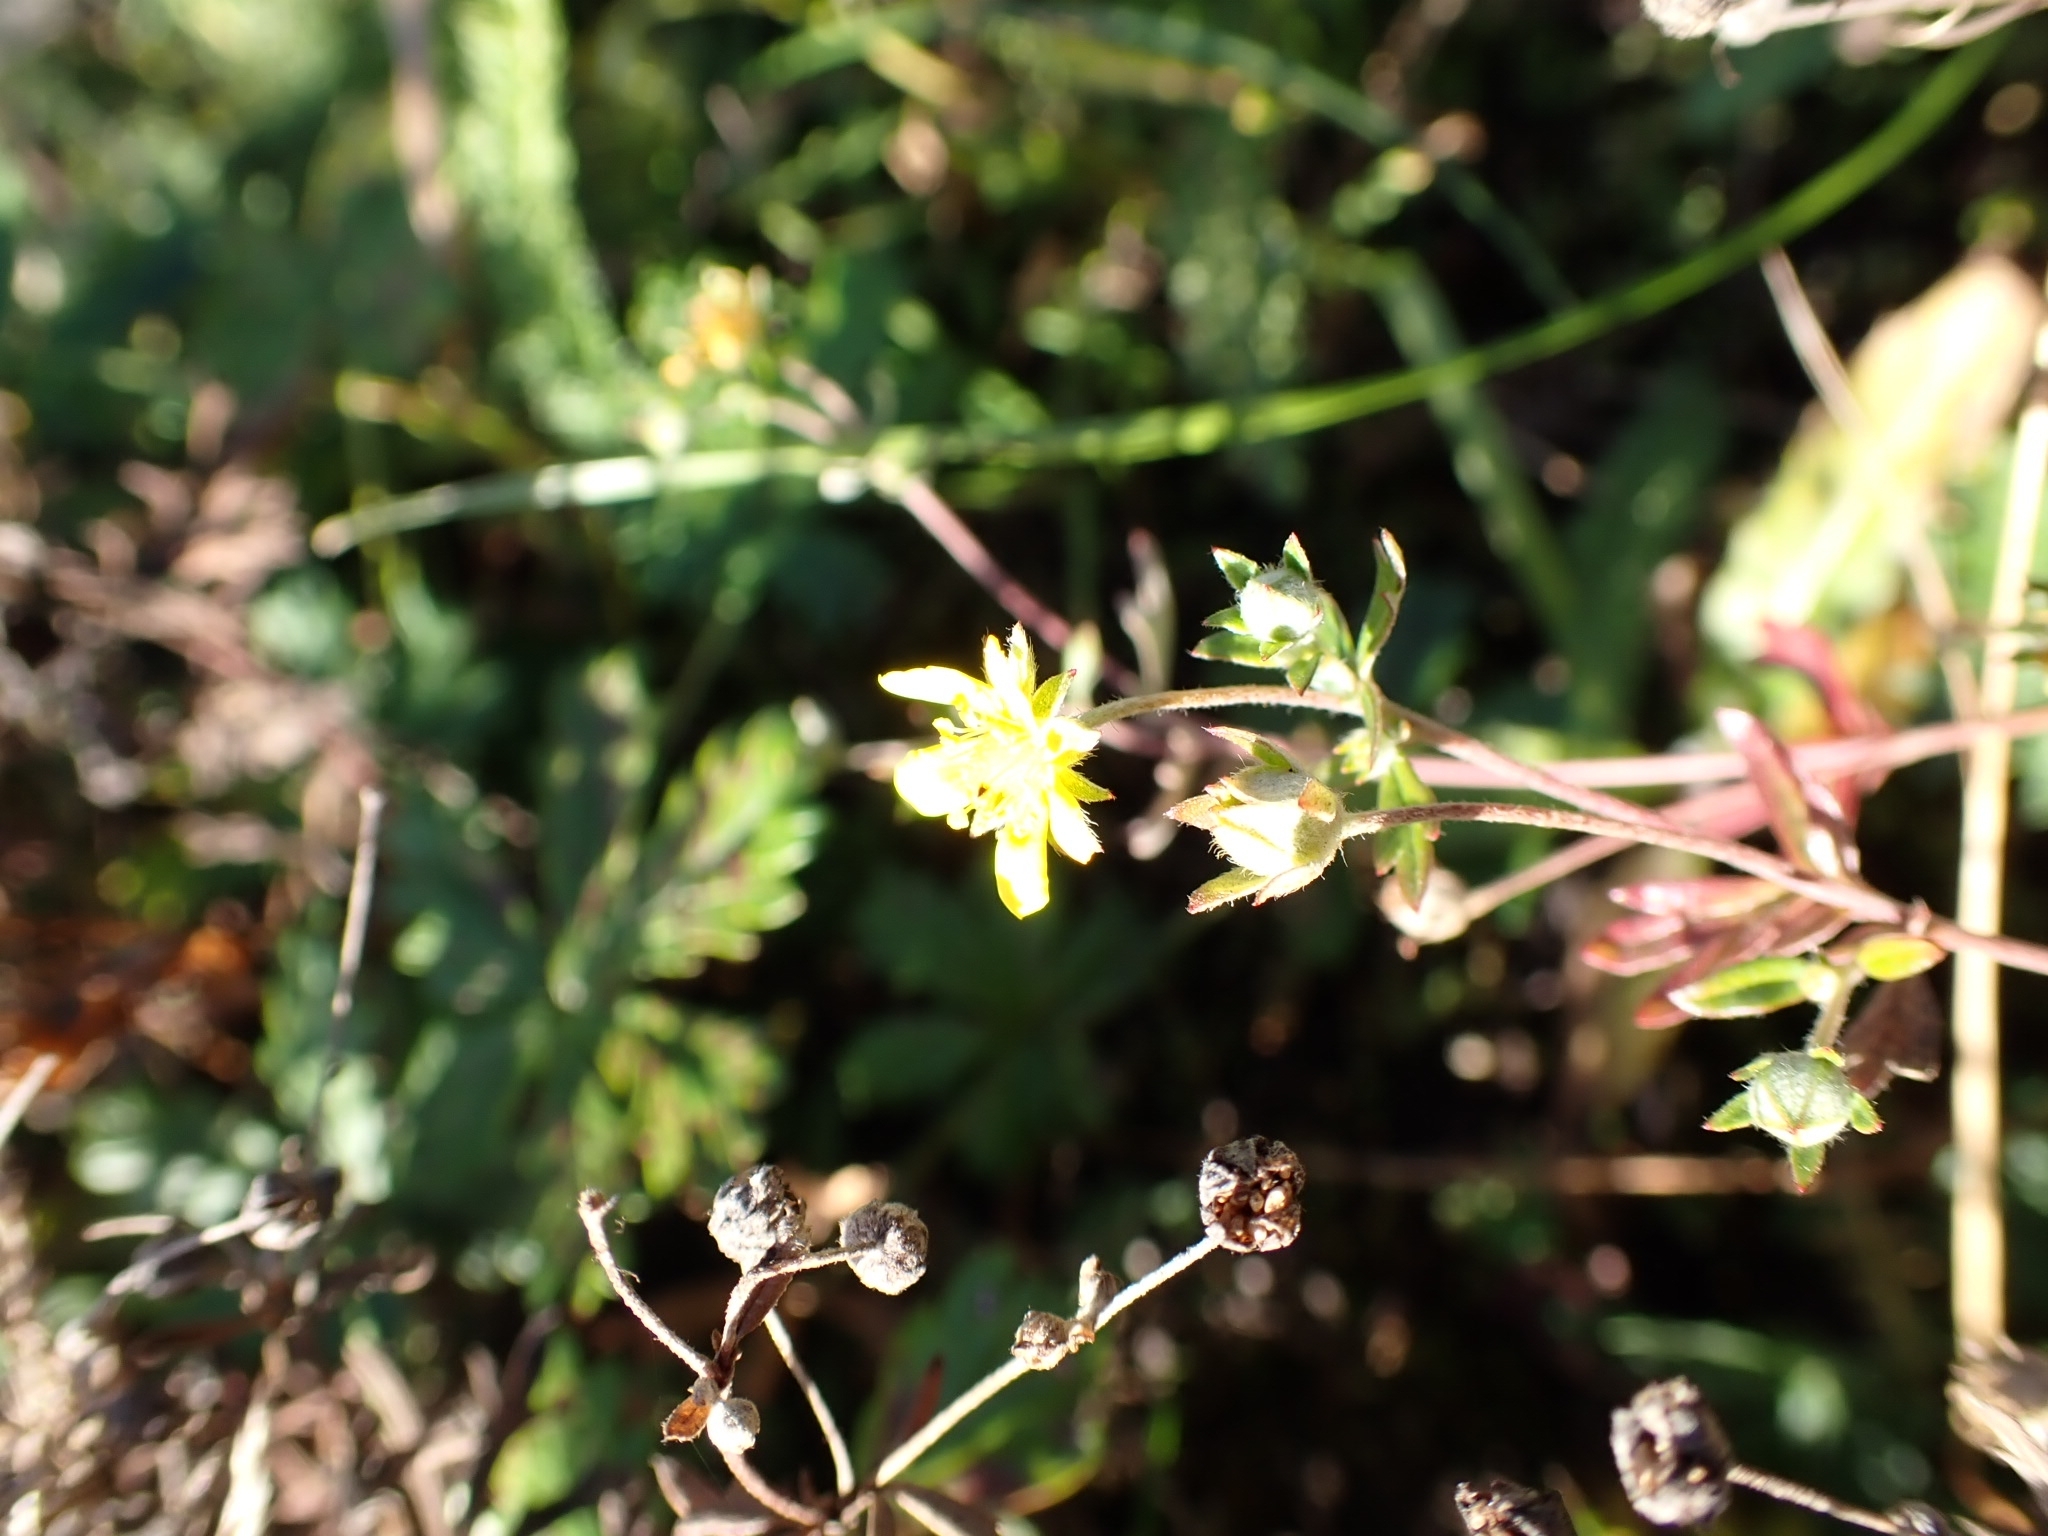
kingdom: Plantae
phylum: Tracheophyta
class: Magnoliopsida
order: Rosales
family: Rosaceae
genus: Potentilla
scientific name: Potentilla argentea
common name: Hoary cinquefoil
